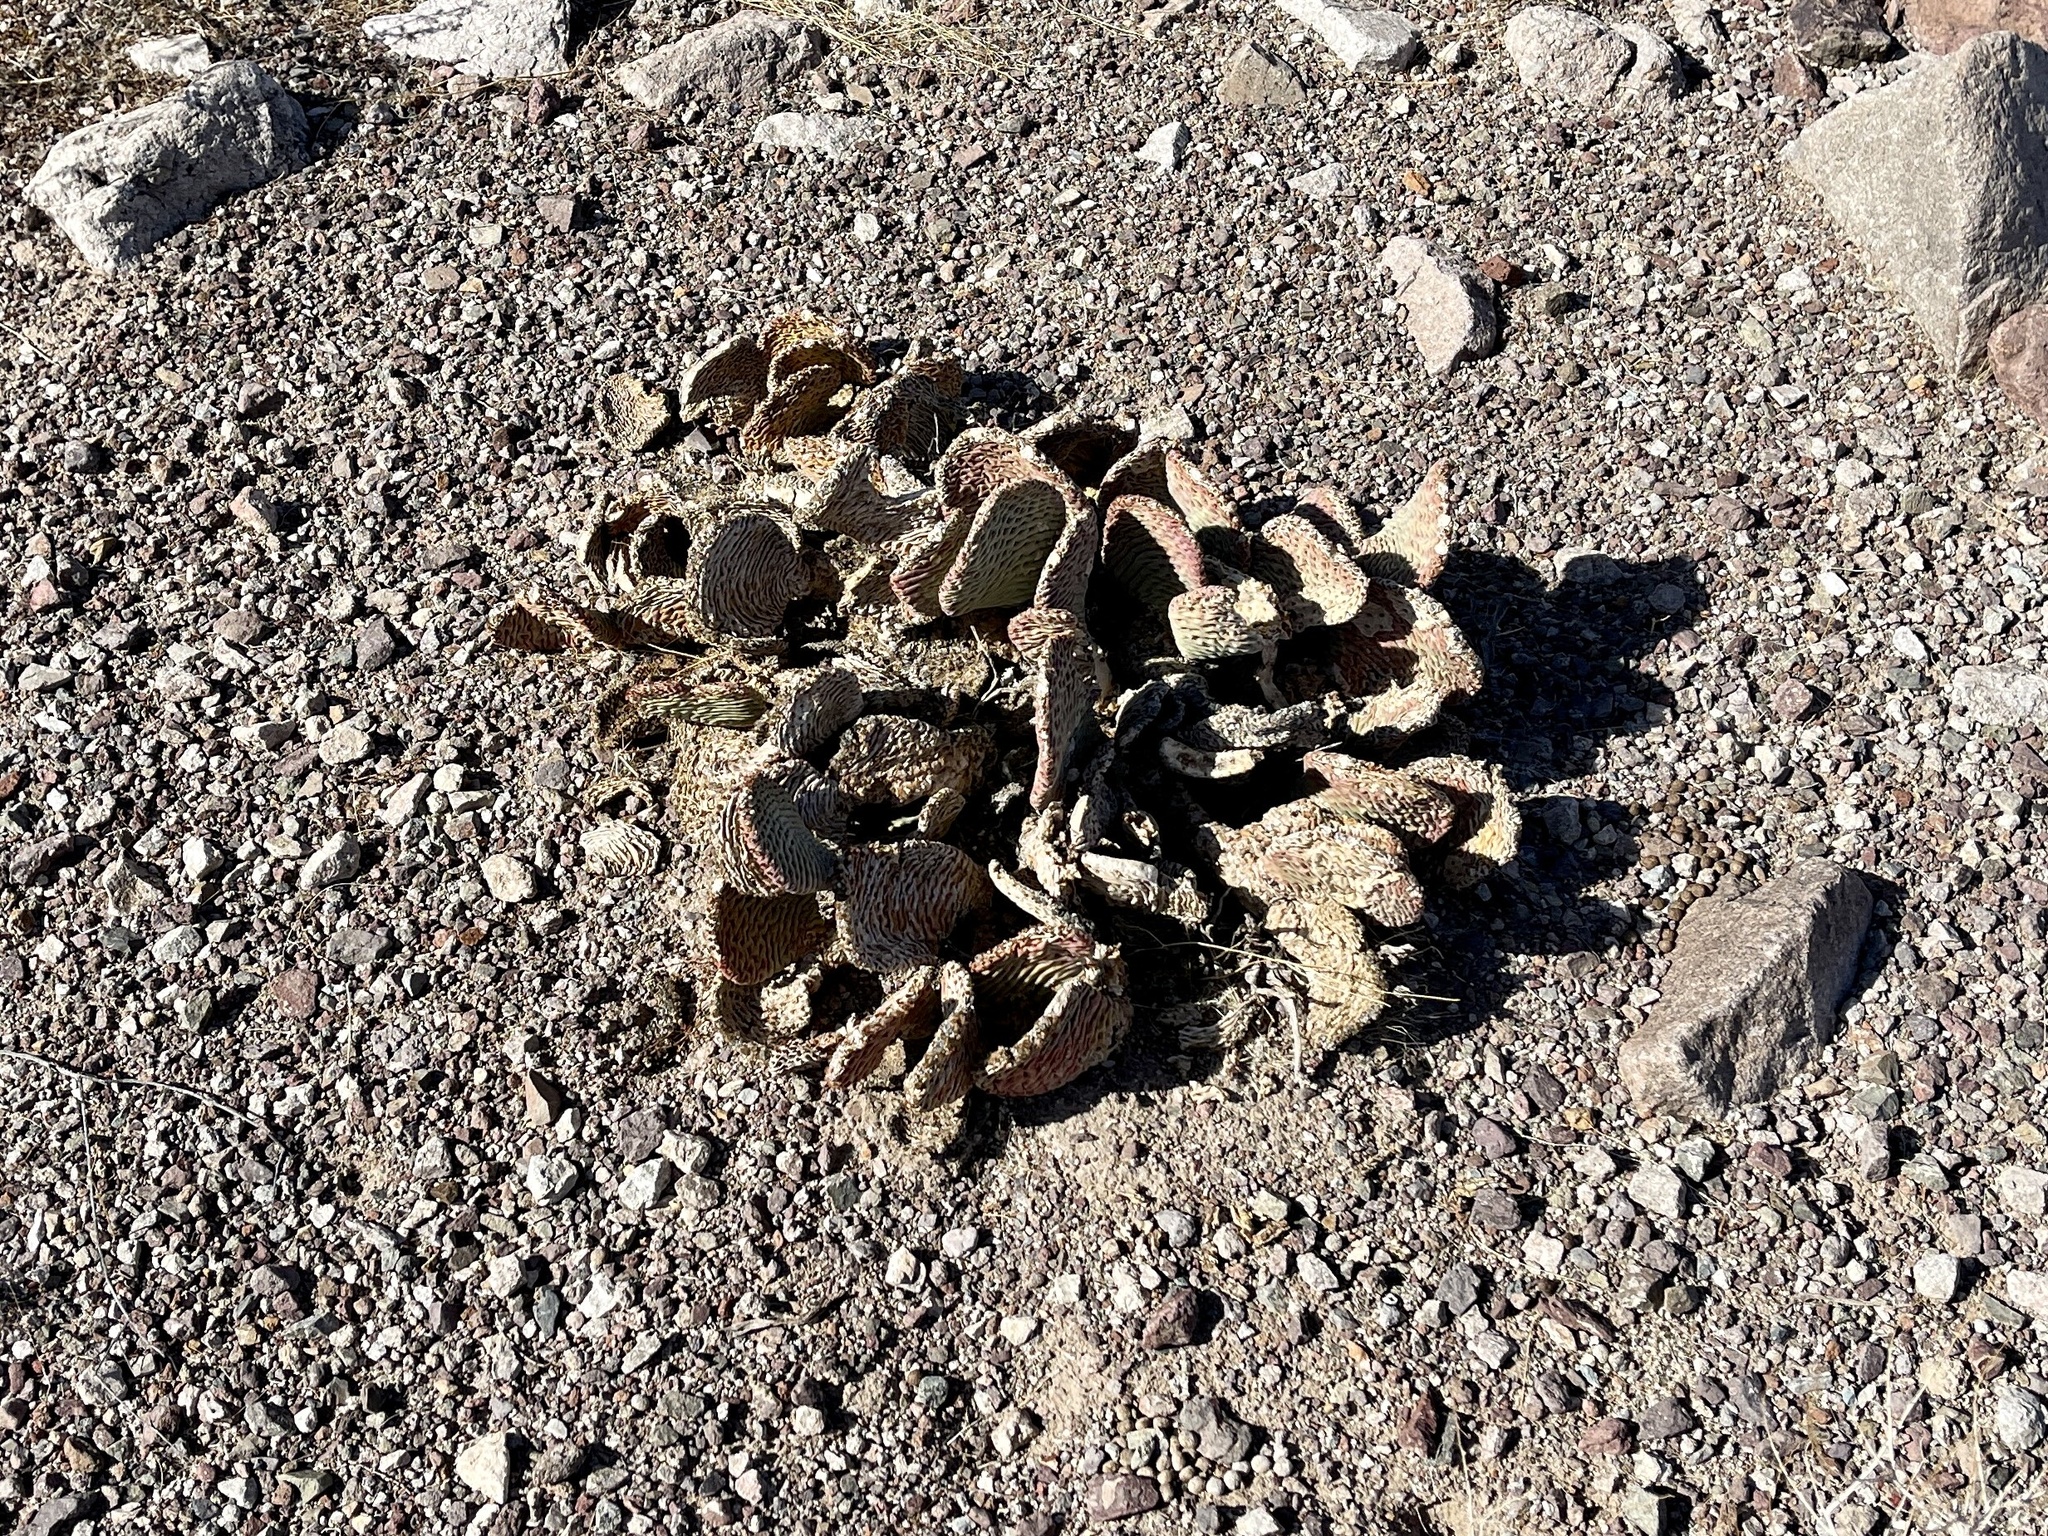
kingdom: Plantae
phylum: Tracheophyta
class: Magnoliopsida
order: Caryophyllales
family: Cactaceae
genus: Opuntia
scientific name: Opuntia basilaris
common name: Beavertail prickly-pear
